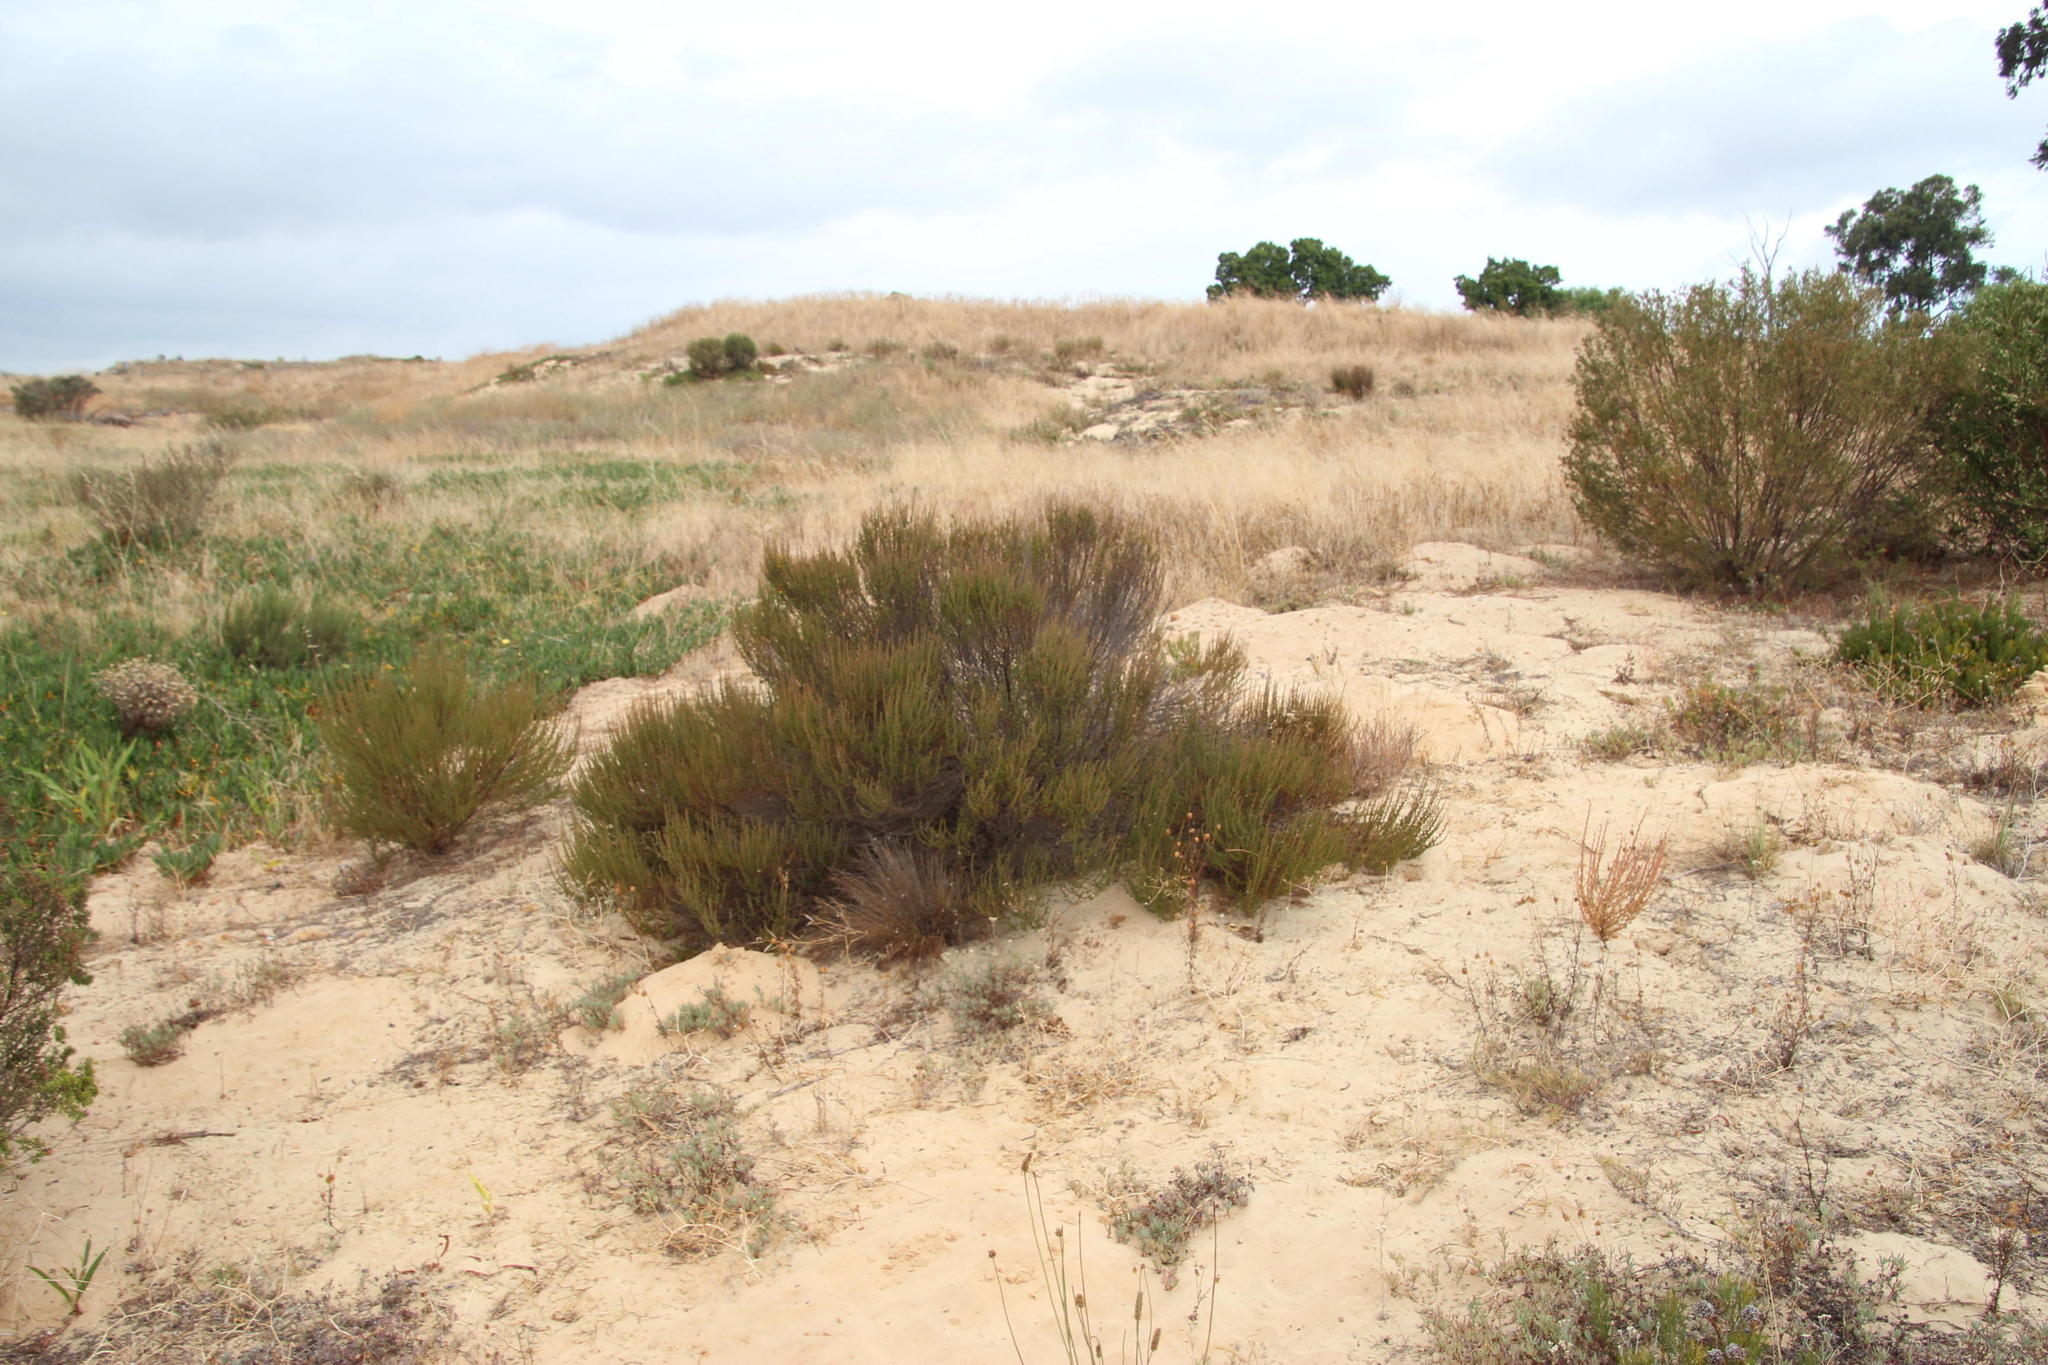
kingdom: Plantae
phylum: Tracheophyta
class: Magnoliopsida
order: Rosales
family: Rosaceae
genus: Cliffortia
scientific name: Cliffortia falcata
